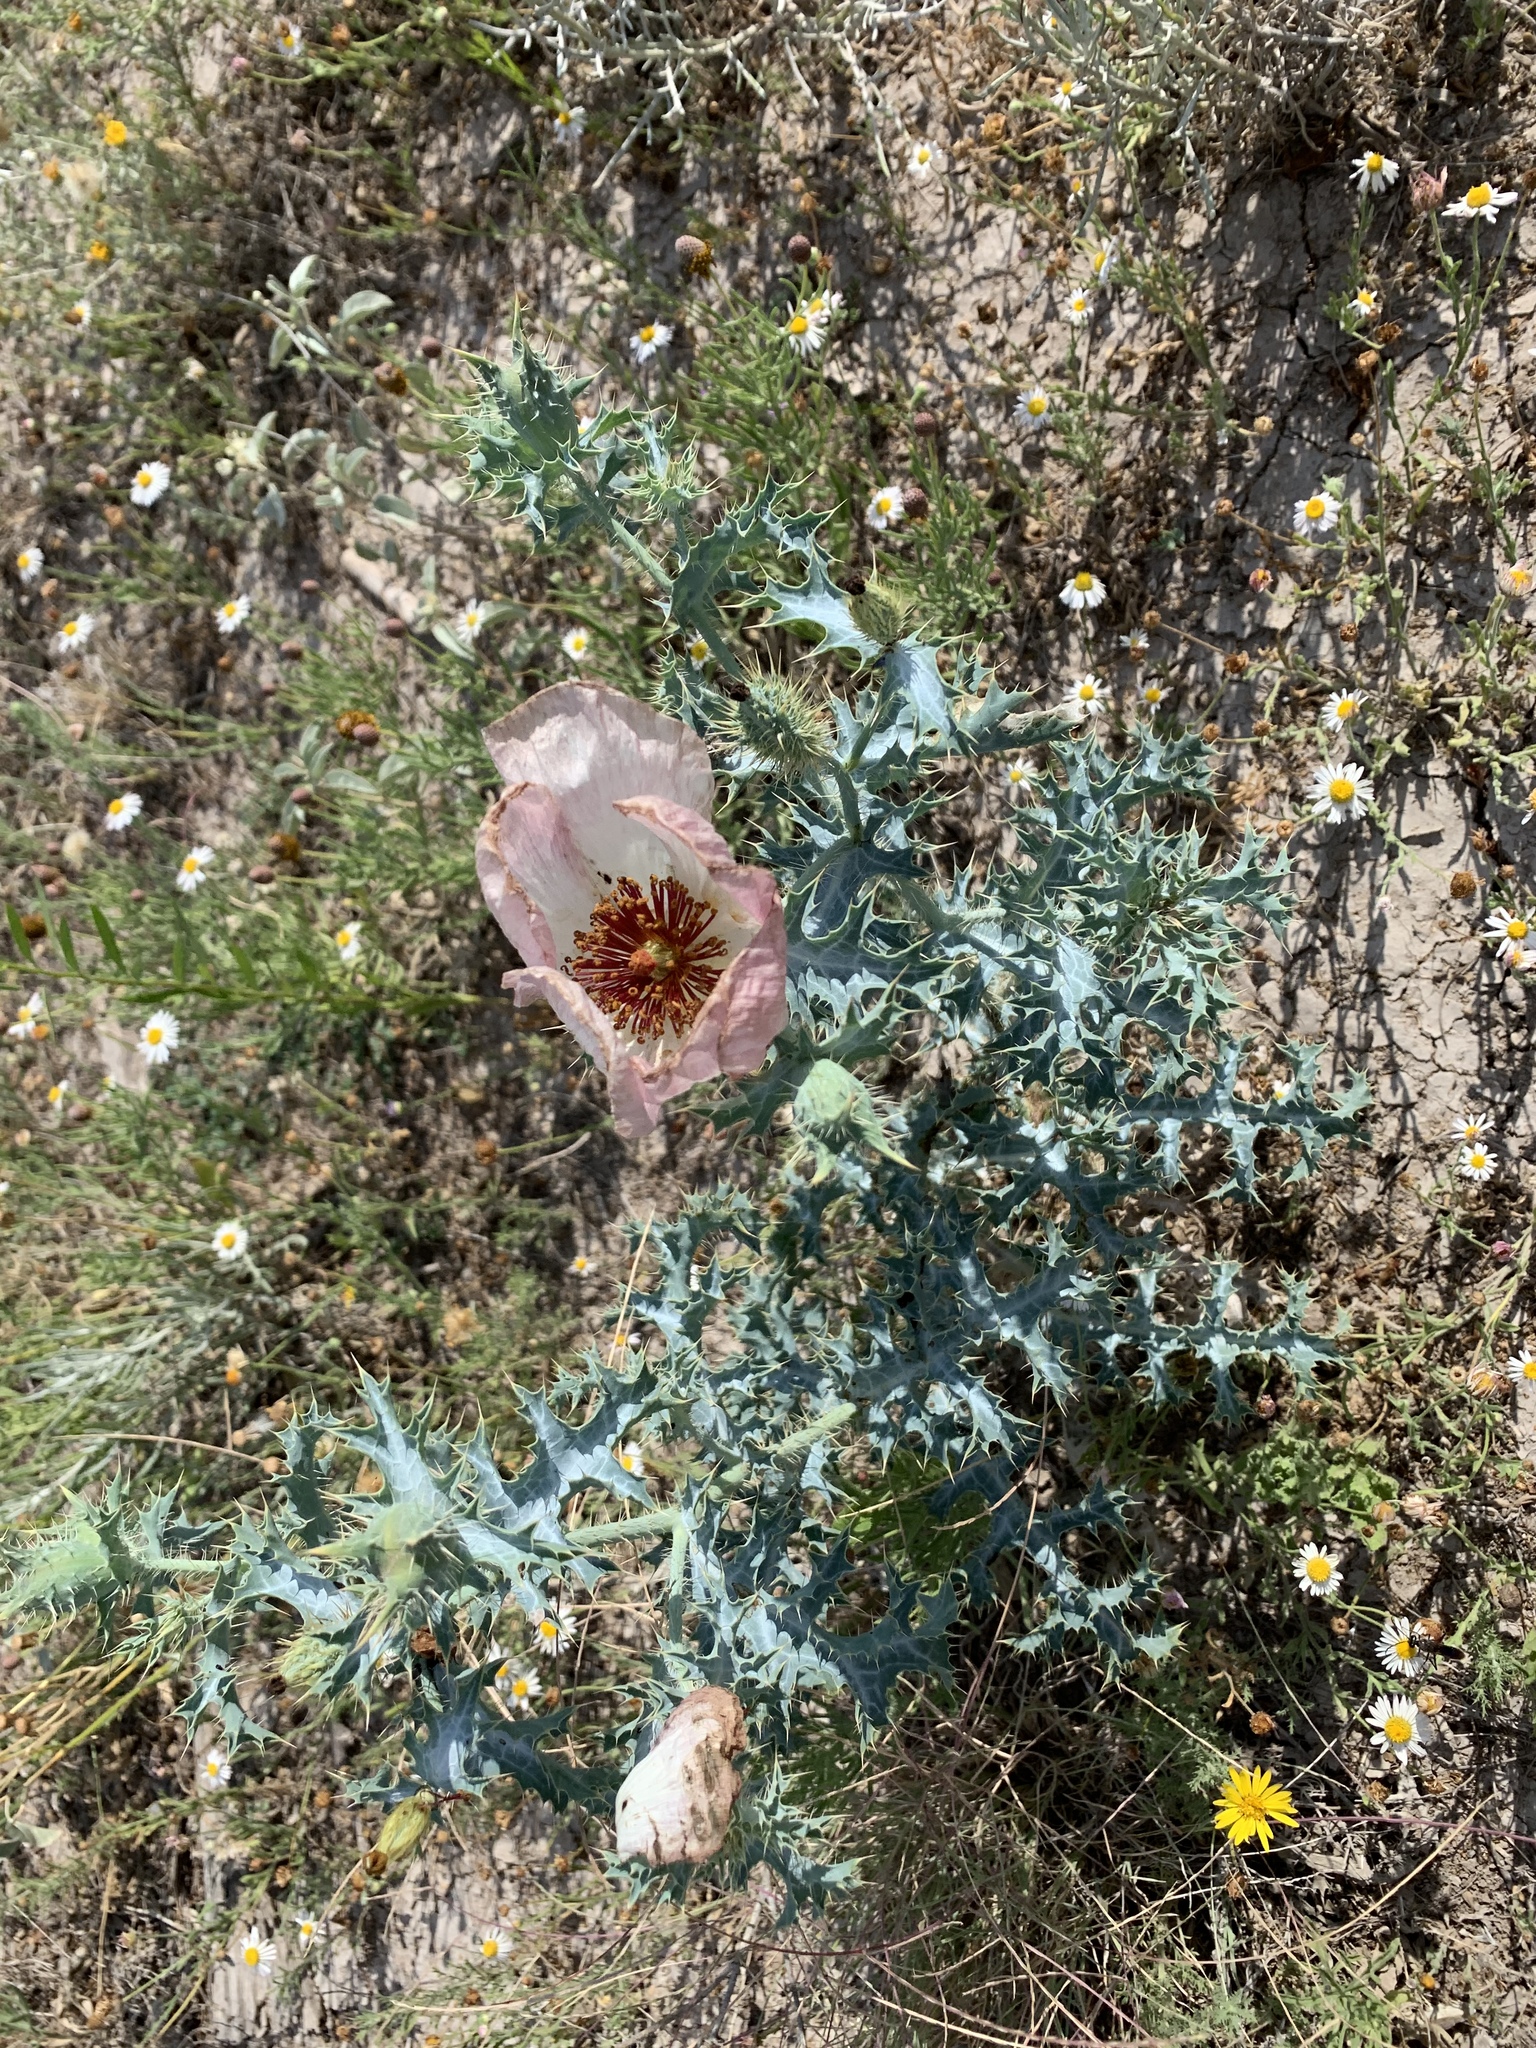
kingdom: Plantae
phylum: Tracheophyta
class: Magnoliopsida
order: Ranunculales
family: Papaveraceae
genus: Argemone
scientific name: Argemone squarrosa
